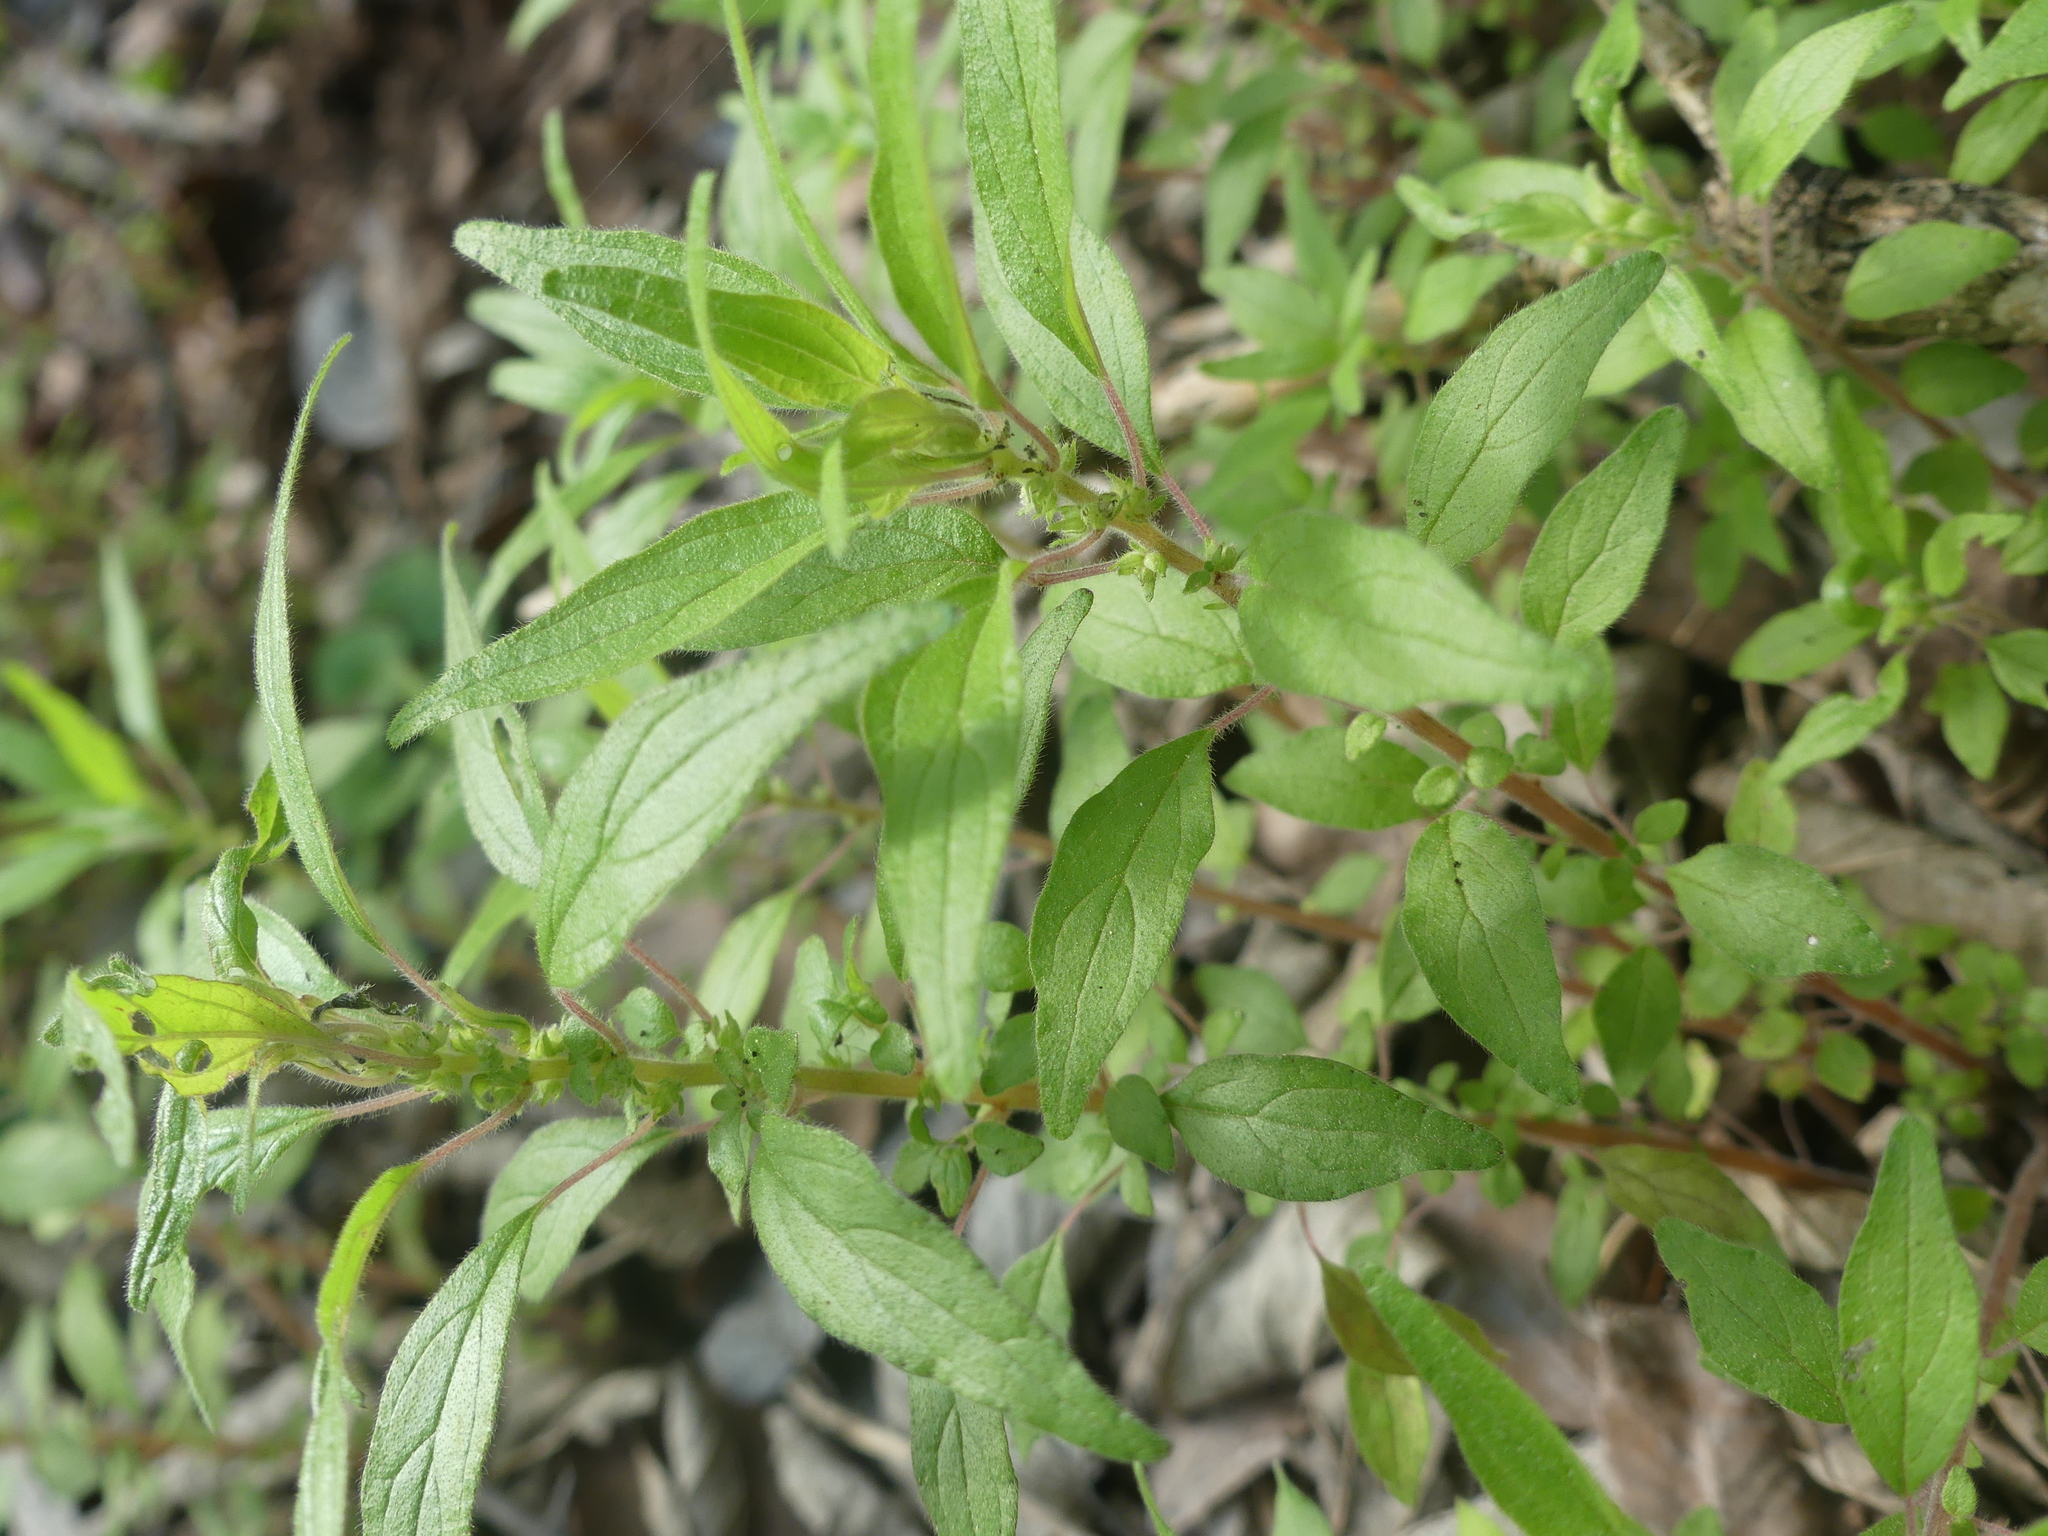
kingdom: Plantae
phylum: Tracheophyta
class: Magnoliopsida
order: Rosales
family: Urticaceae
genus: Parietaria
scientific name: Parietaria pensylvanica
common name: Pennsylvania pellitory
